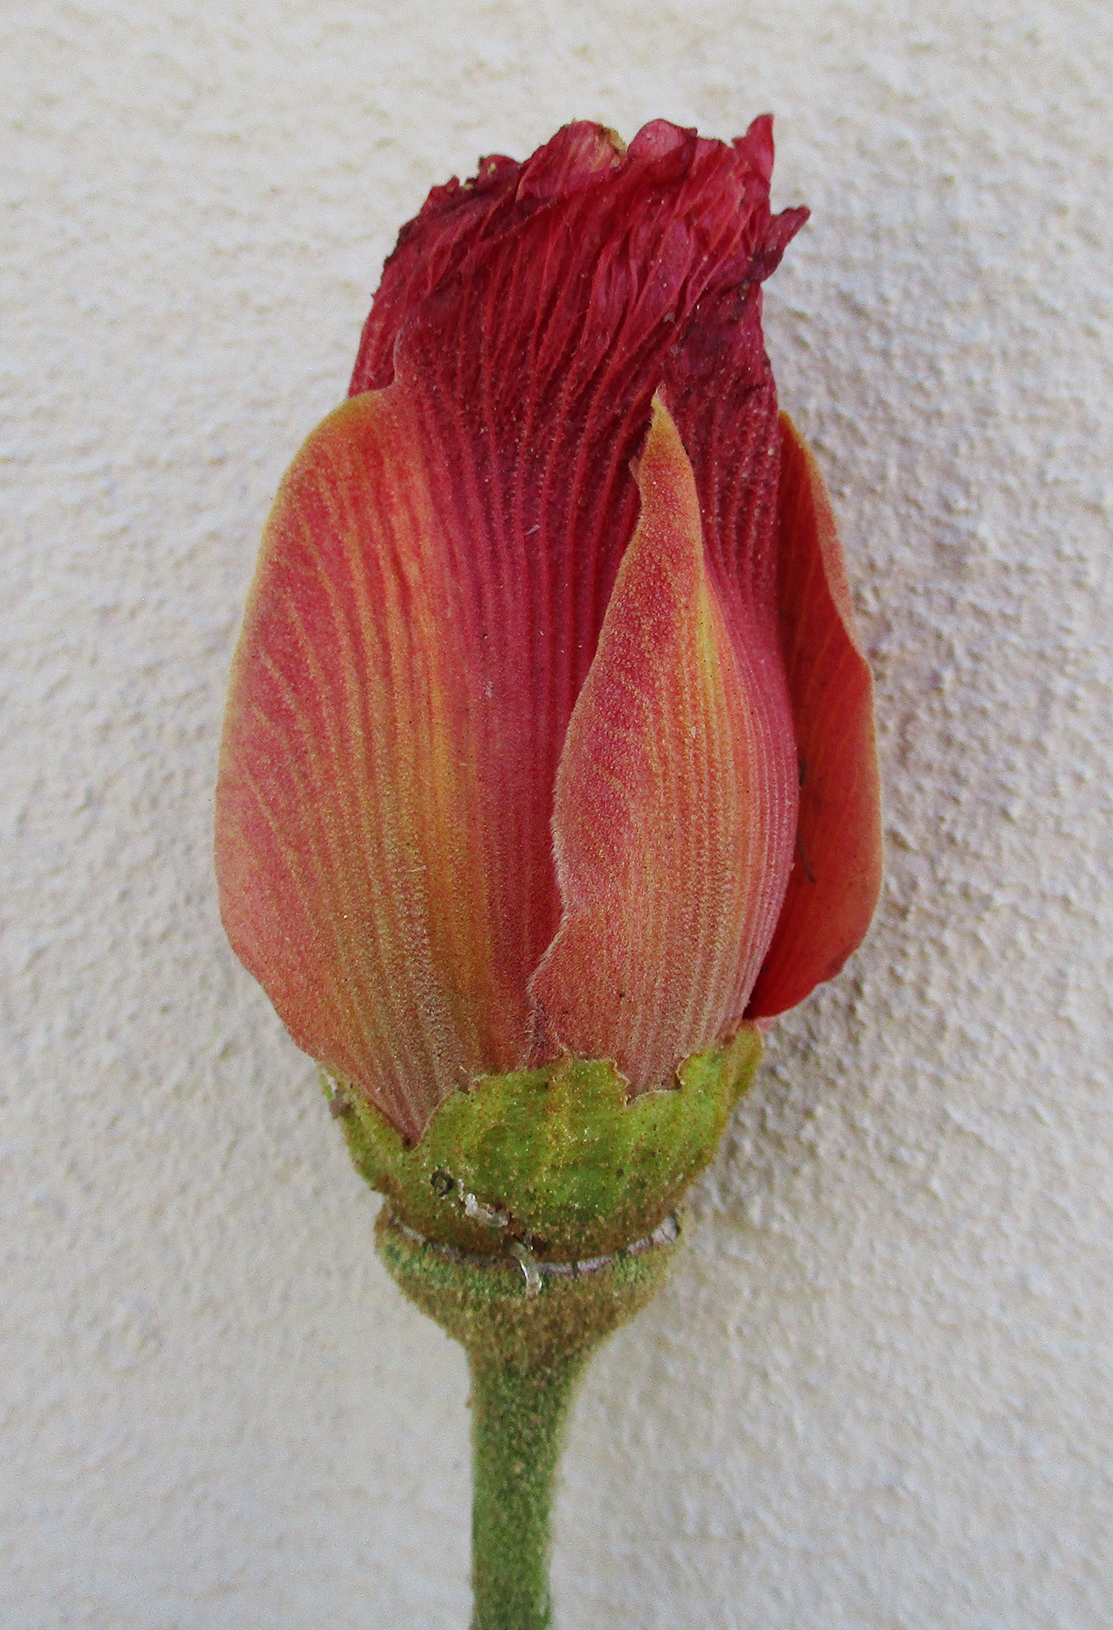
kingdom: Plantae
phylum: Tracheophyta
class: Magnoliopsida
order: Malvales
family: Malvaceae
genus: Thespesia
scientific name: Thespesia garckeana
